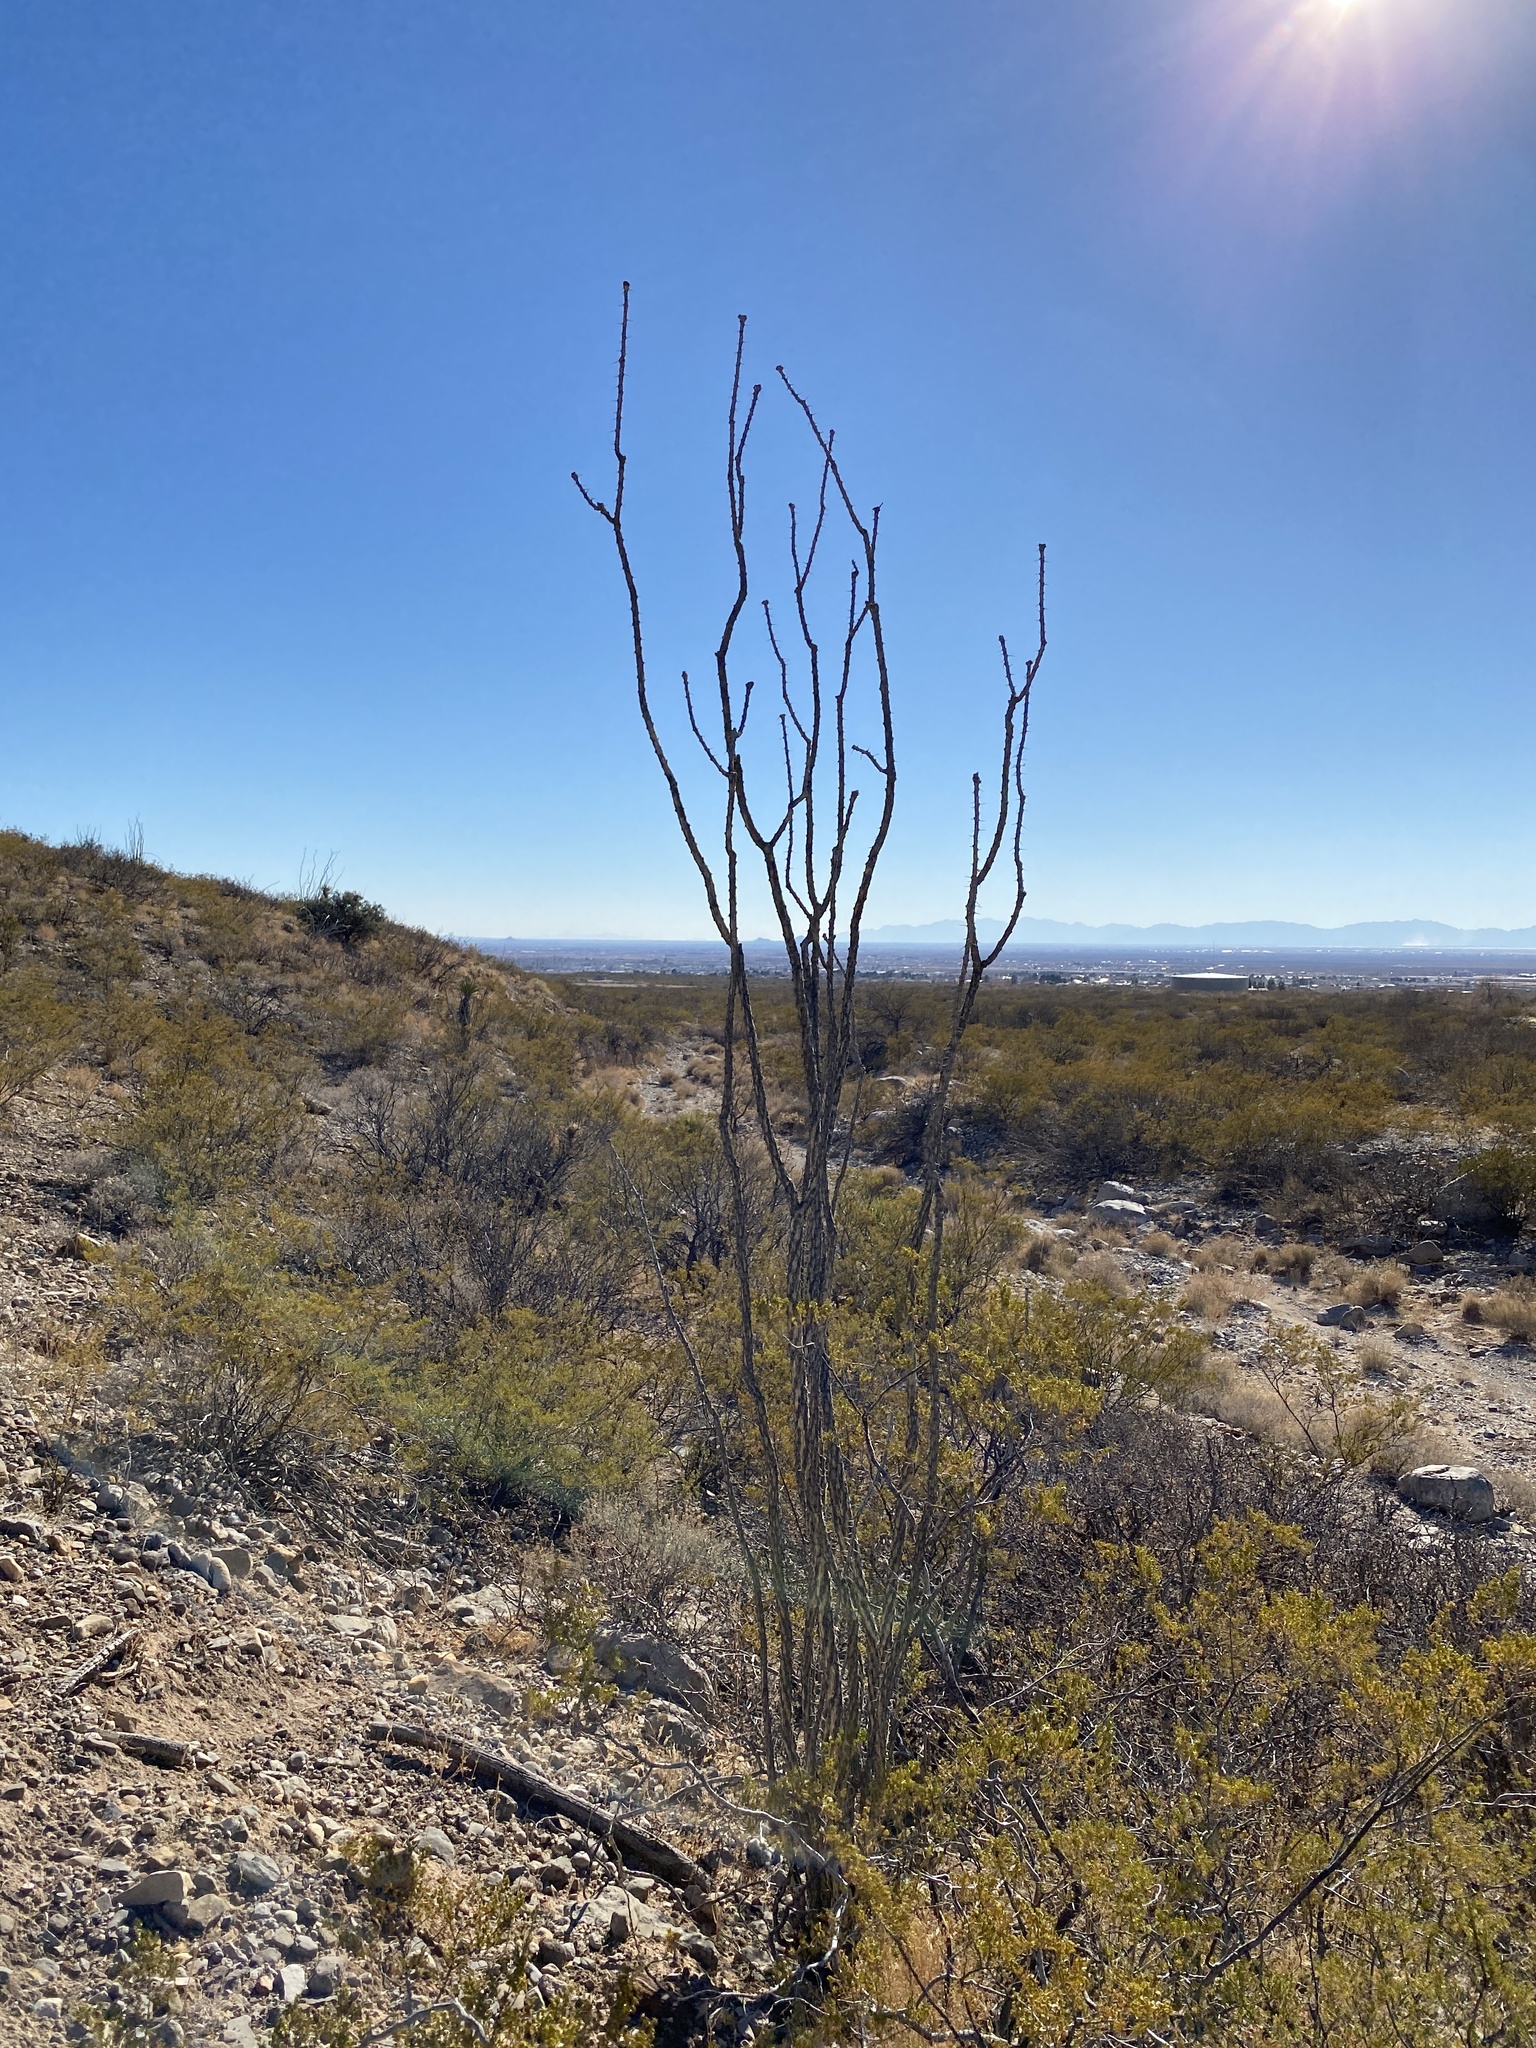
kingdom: Plantae
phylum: Tracheophyta
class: Magnoliopsida
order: Ericales
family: Fouquieriaceae
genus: Fouquieria
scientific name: Fouquieria splendens
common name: Vine-cactus
